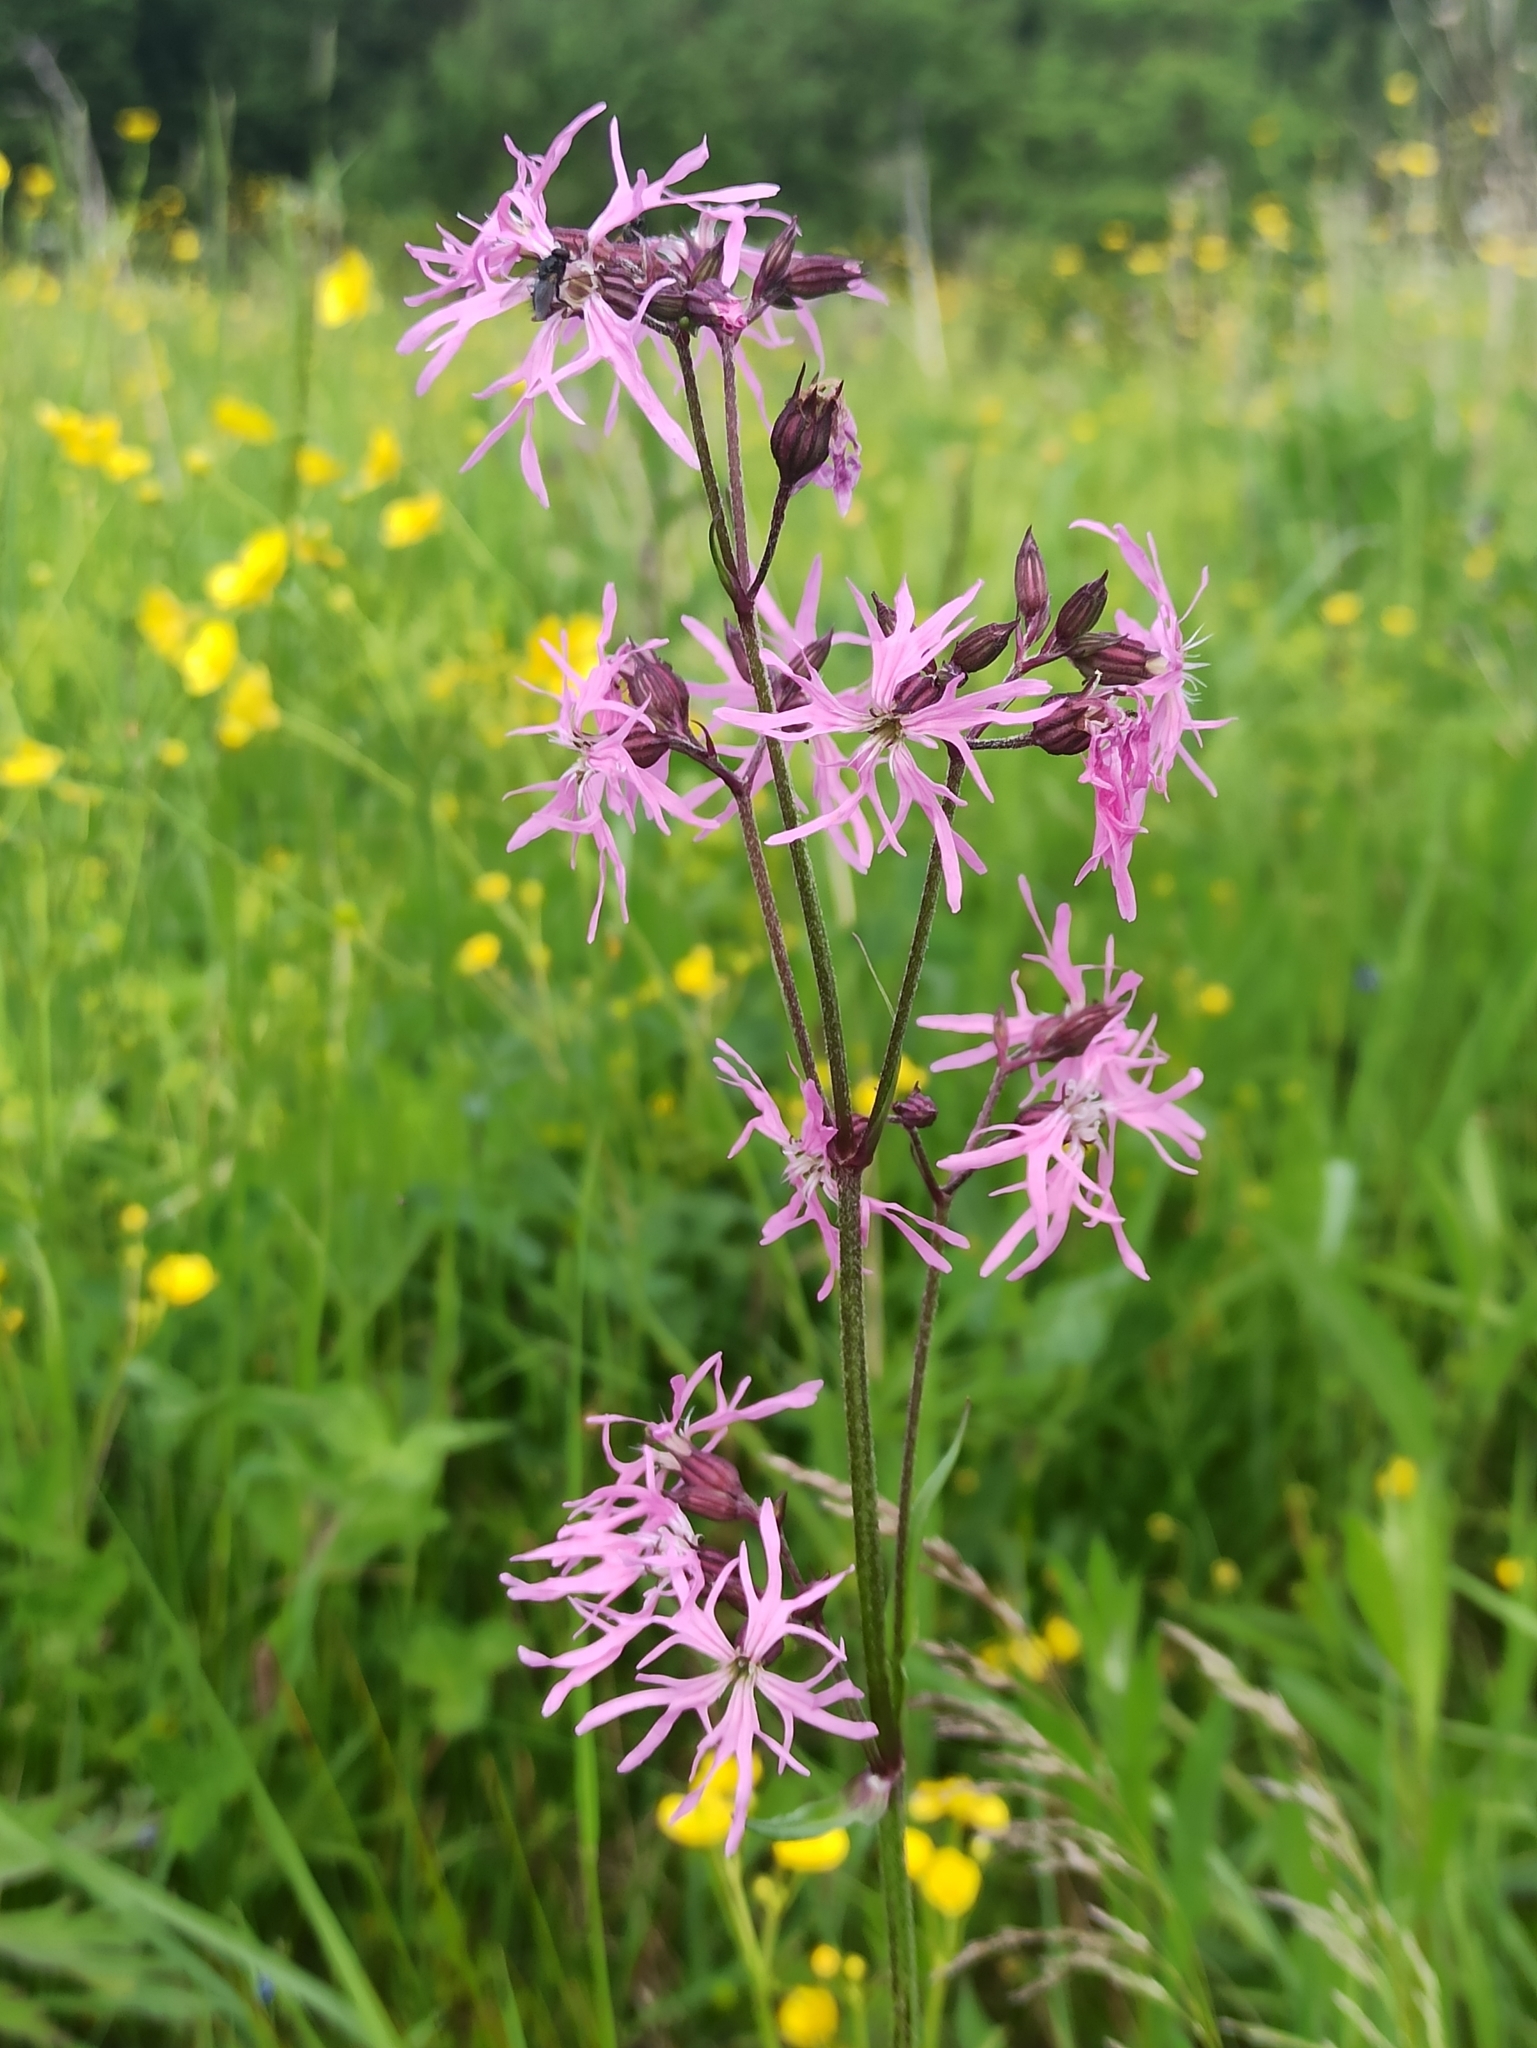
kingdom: Plantae
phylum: Tracheophyta
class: Magnoliopsida
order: Caryophyllales
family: Caryophyllaceae
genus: Silene
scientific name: Silene flos-cuculi
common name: Ragged-robin
